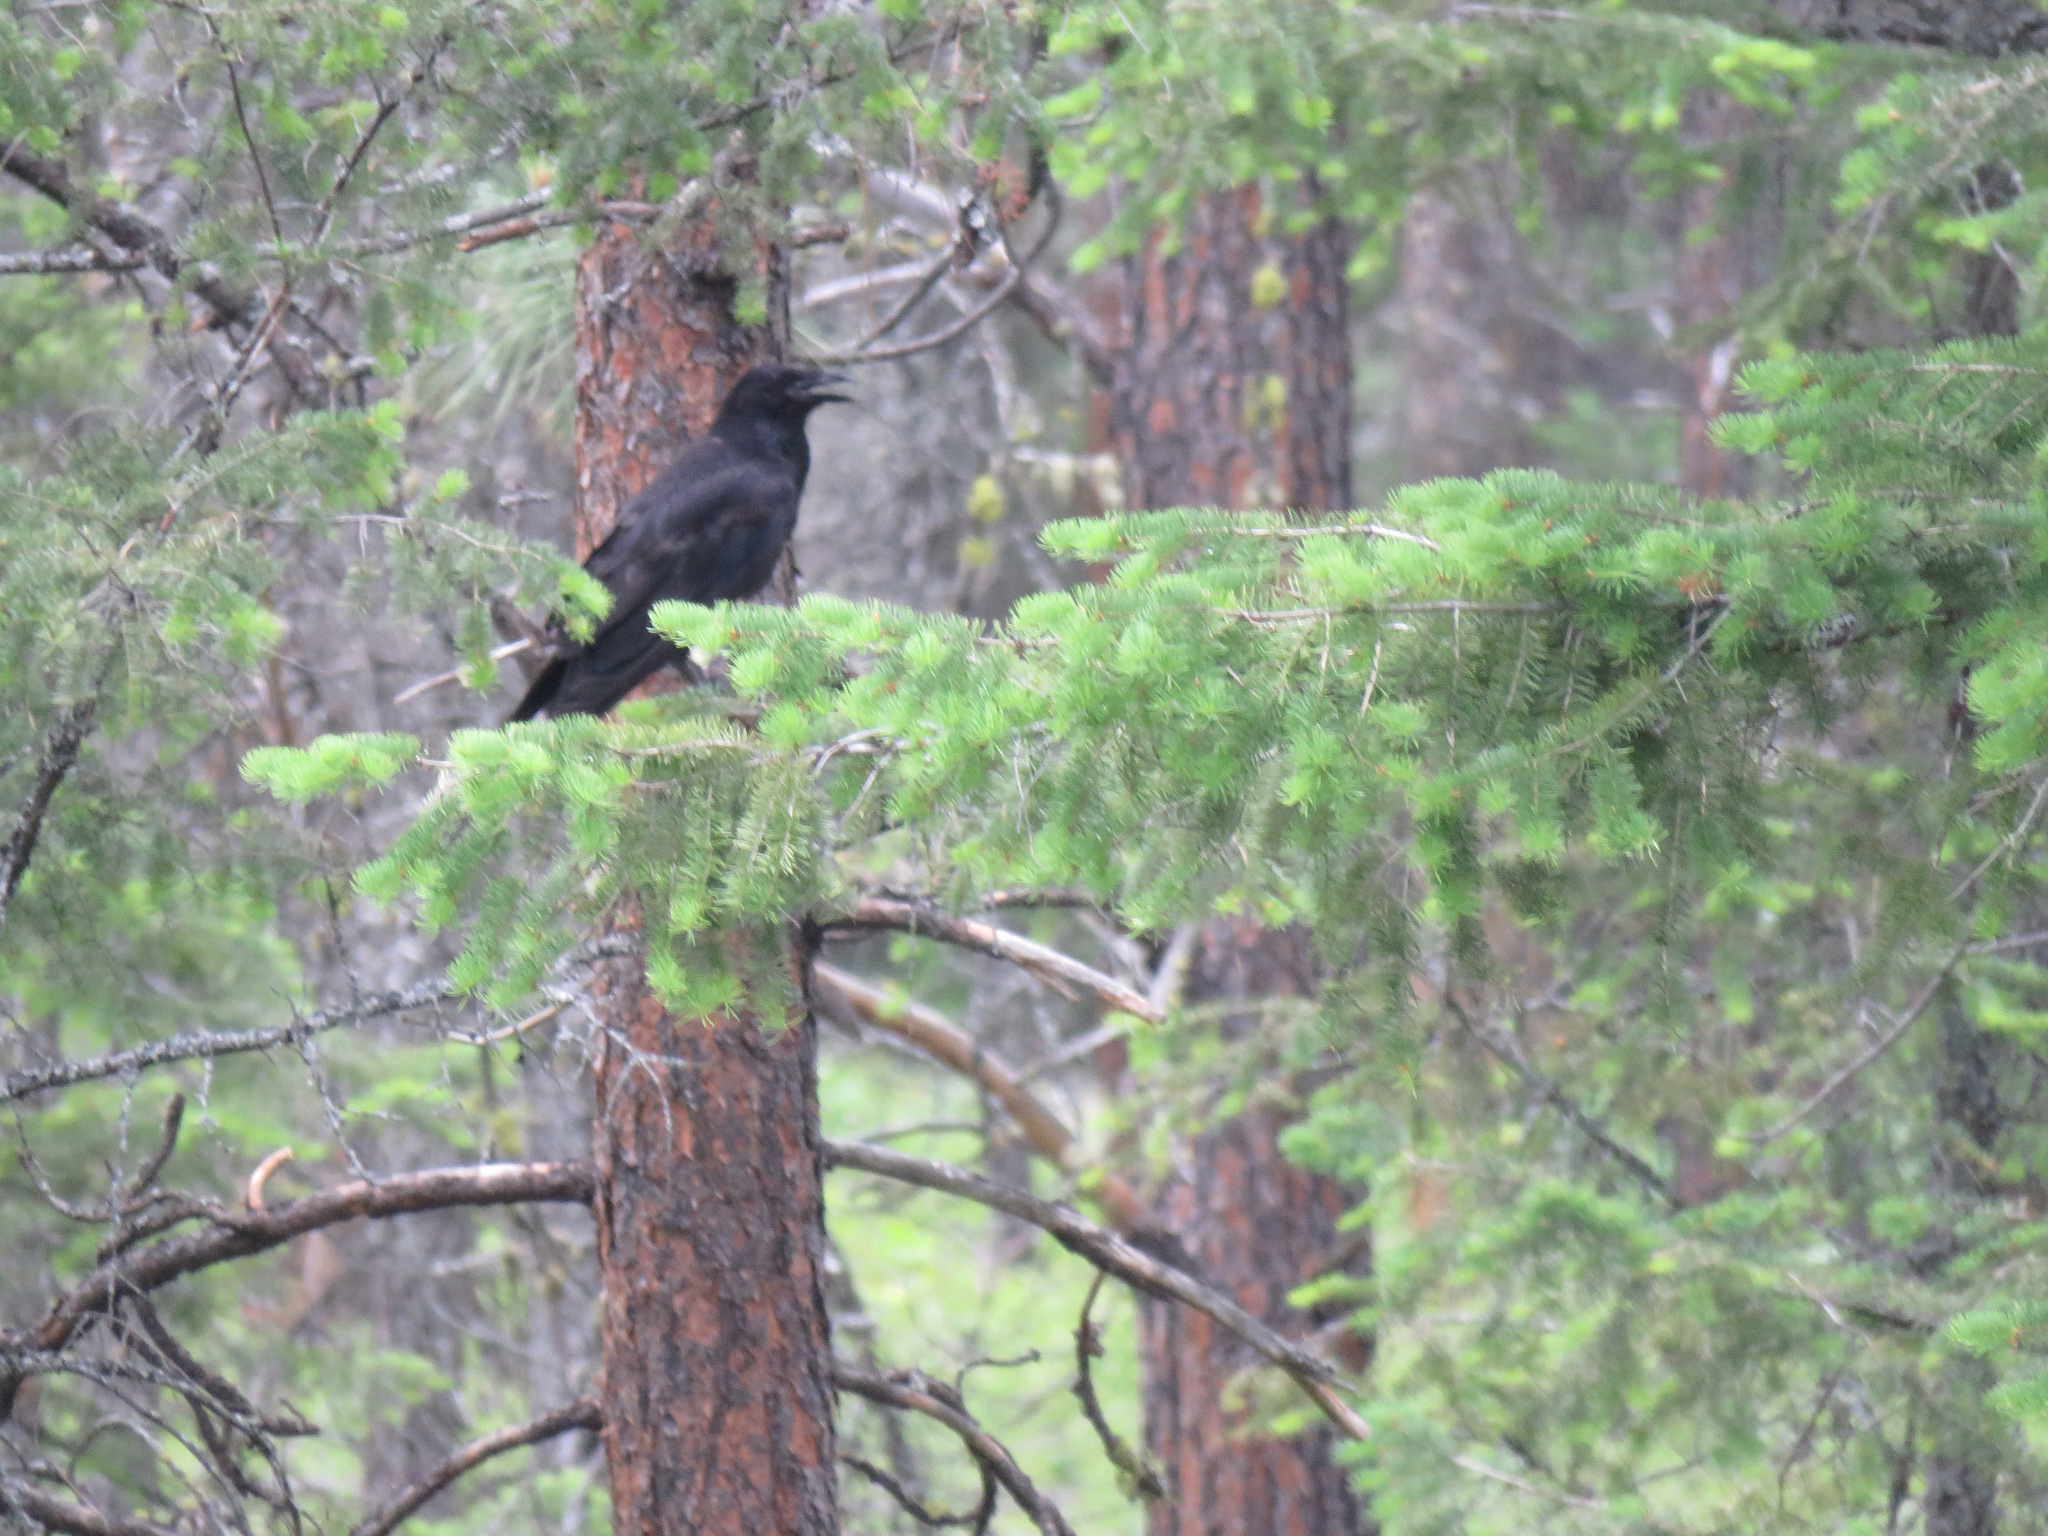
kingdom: Animalia
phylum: Chordata
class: Aves
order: Passeriformes
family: Corvidae
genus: Corvus
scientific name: Corvus brachyrhynchos
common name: American crow
